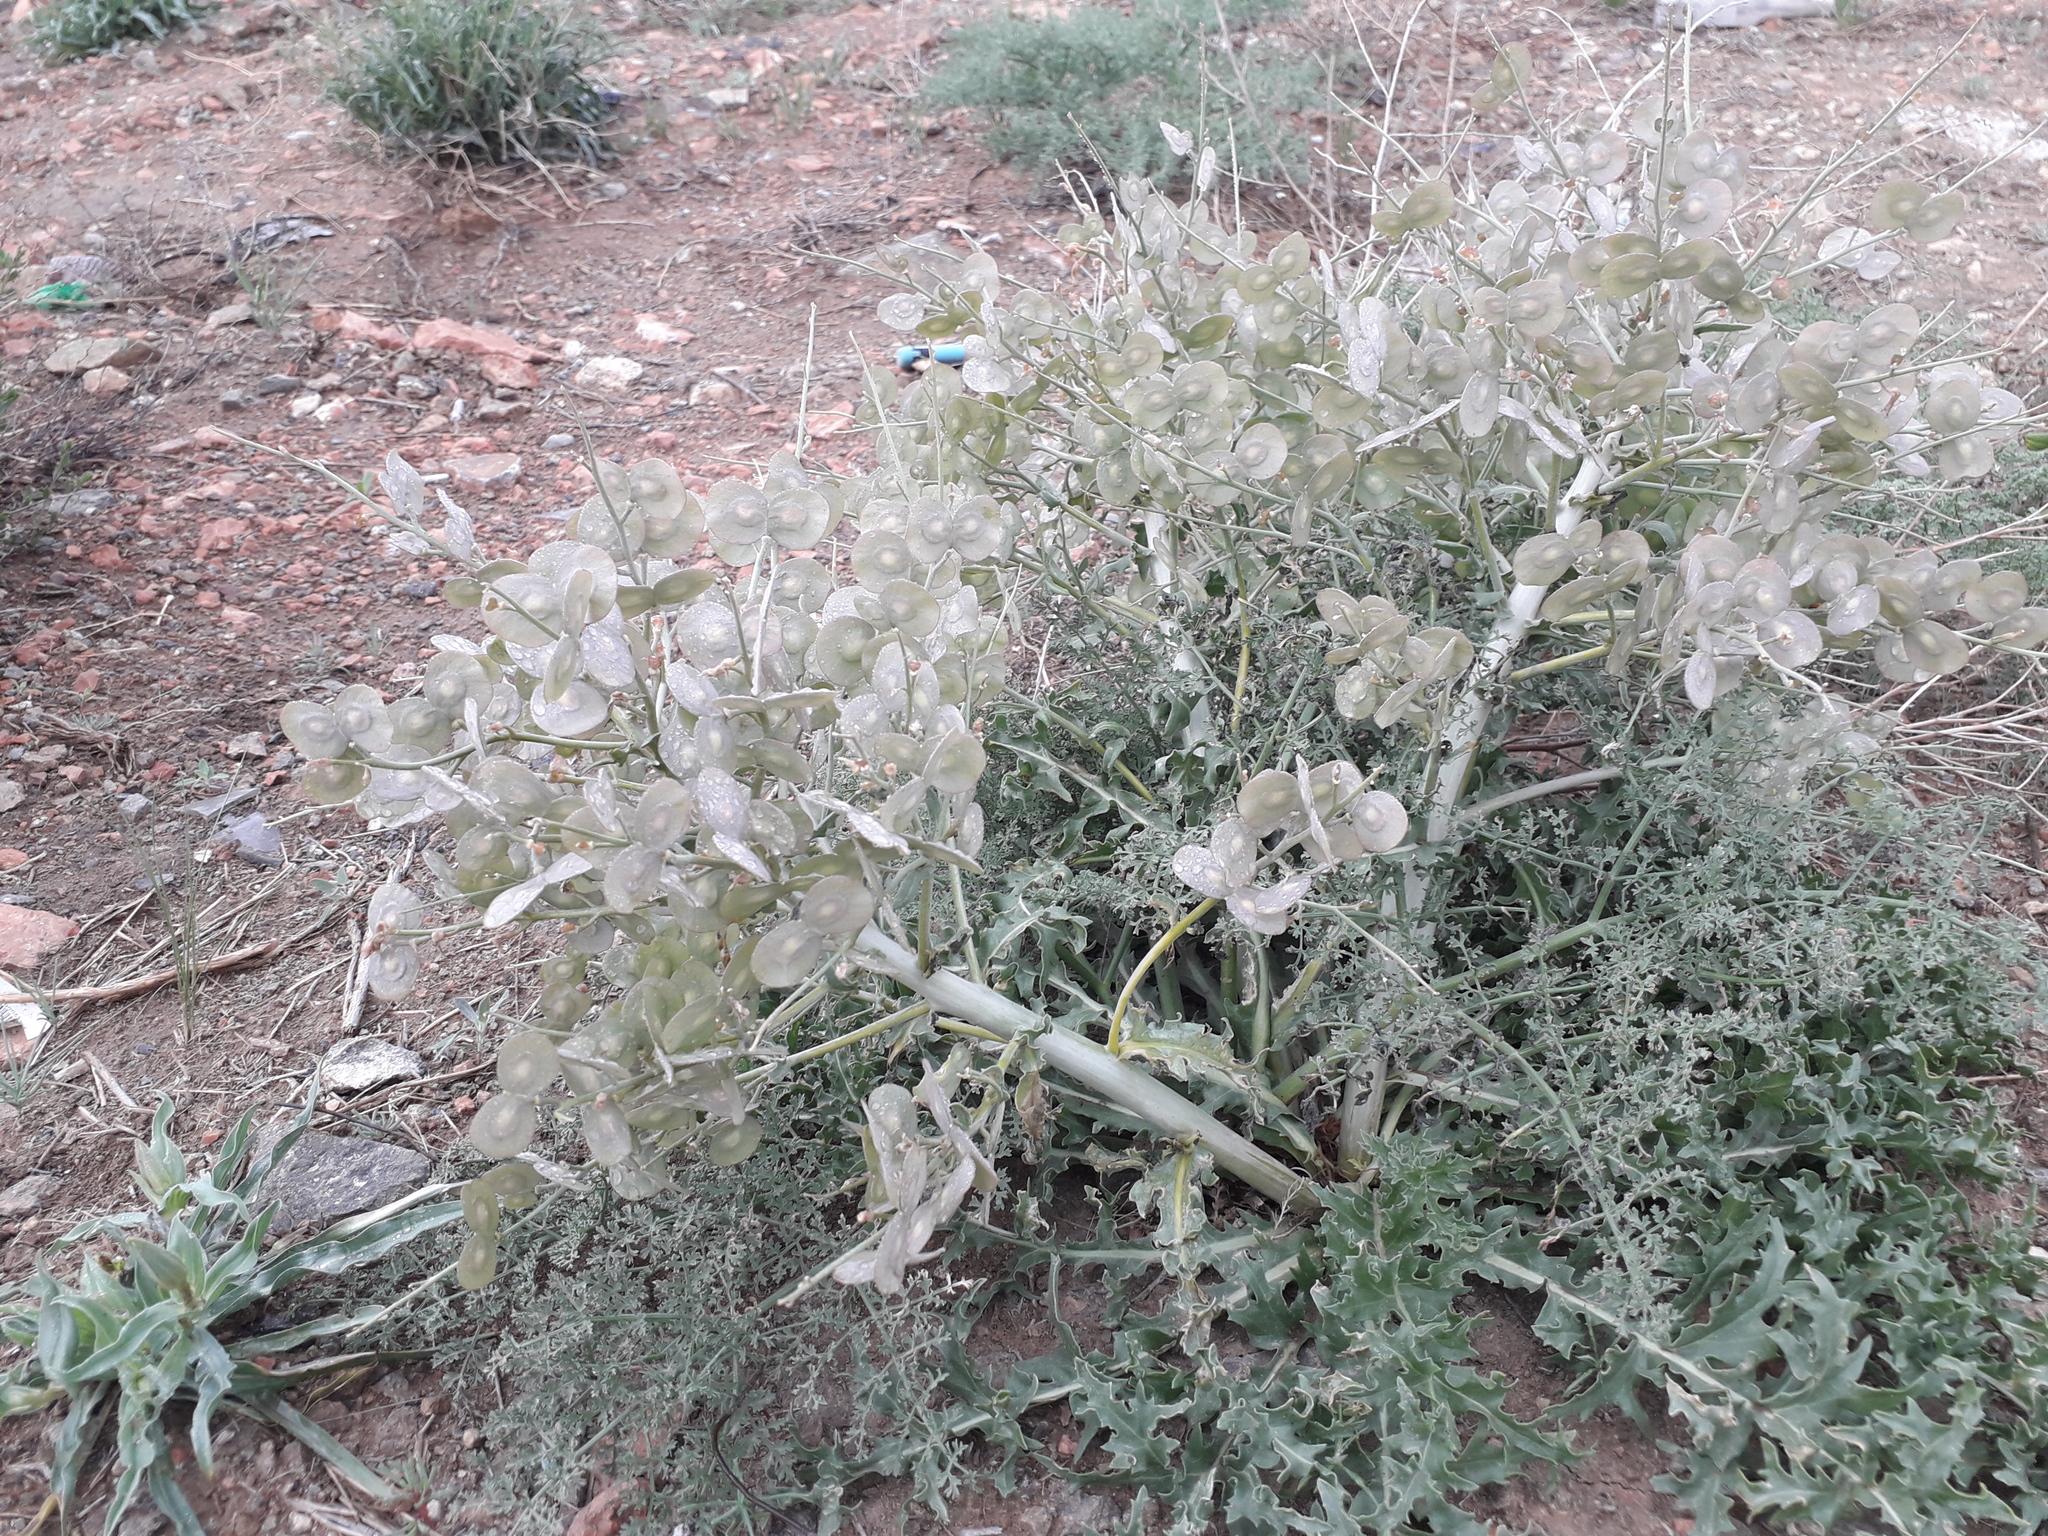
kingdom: Plantae
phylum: Tracheophyta
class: Magnoliopsida
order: Brassicales
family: Brassicaceae
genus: Megacarpaea
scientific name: Megacarpaea megalocarpa
